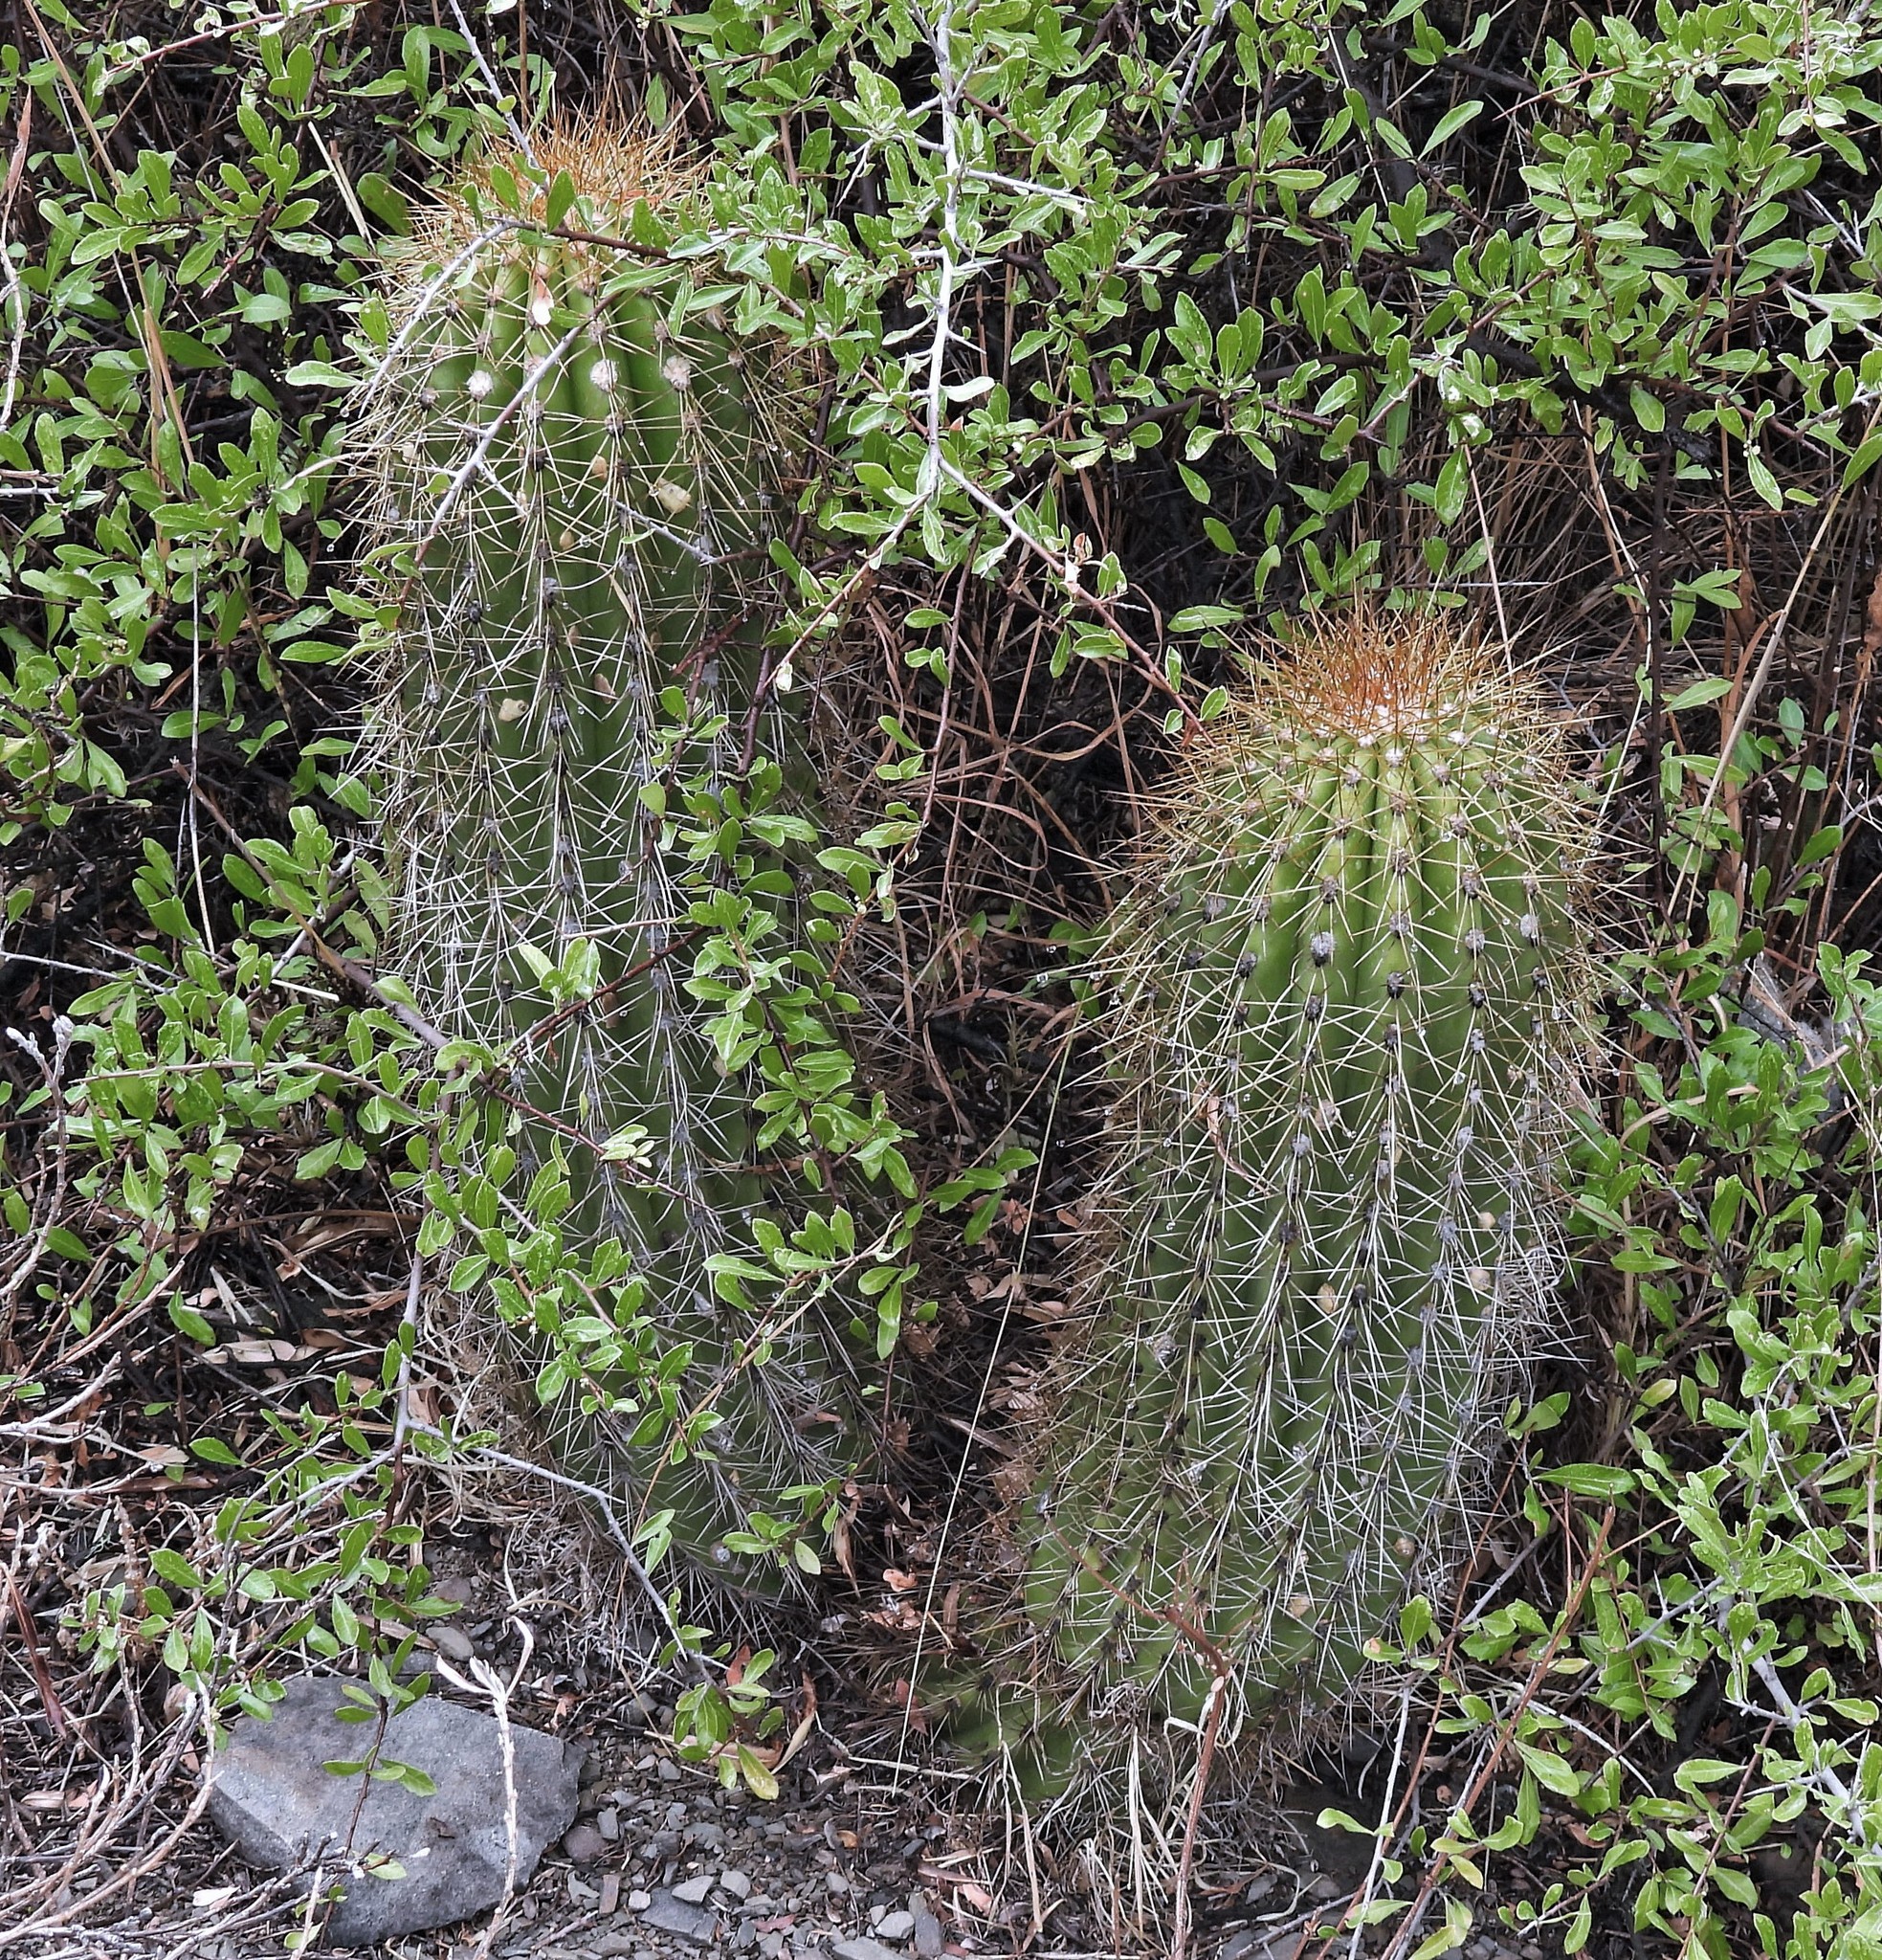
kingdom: Plantae
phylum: Tracheophyta
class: Magnoliopsida
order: Caryophyllales
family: Cactaceae
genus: Soehrensia
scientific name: Soehrensia schickendantzii
